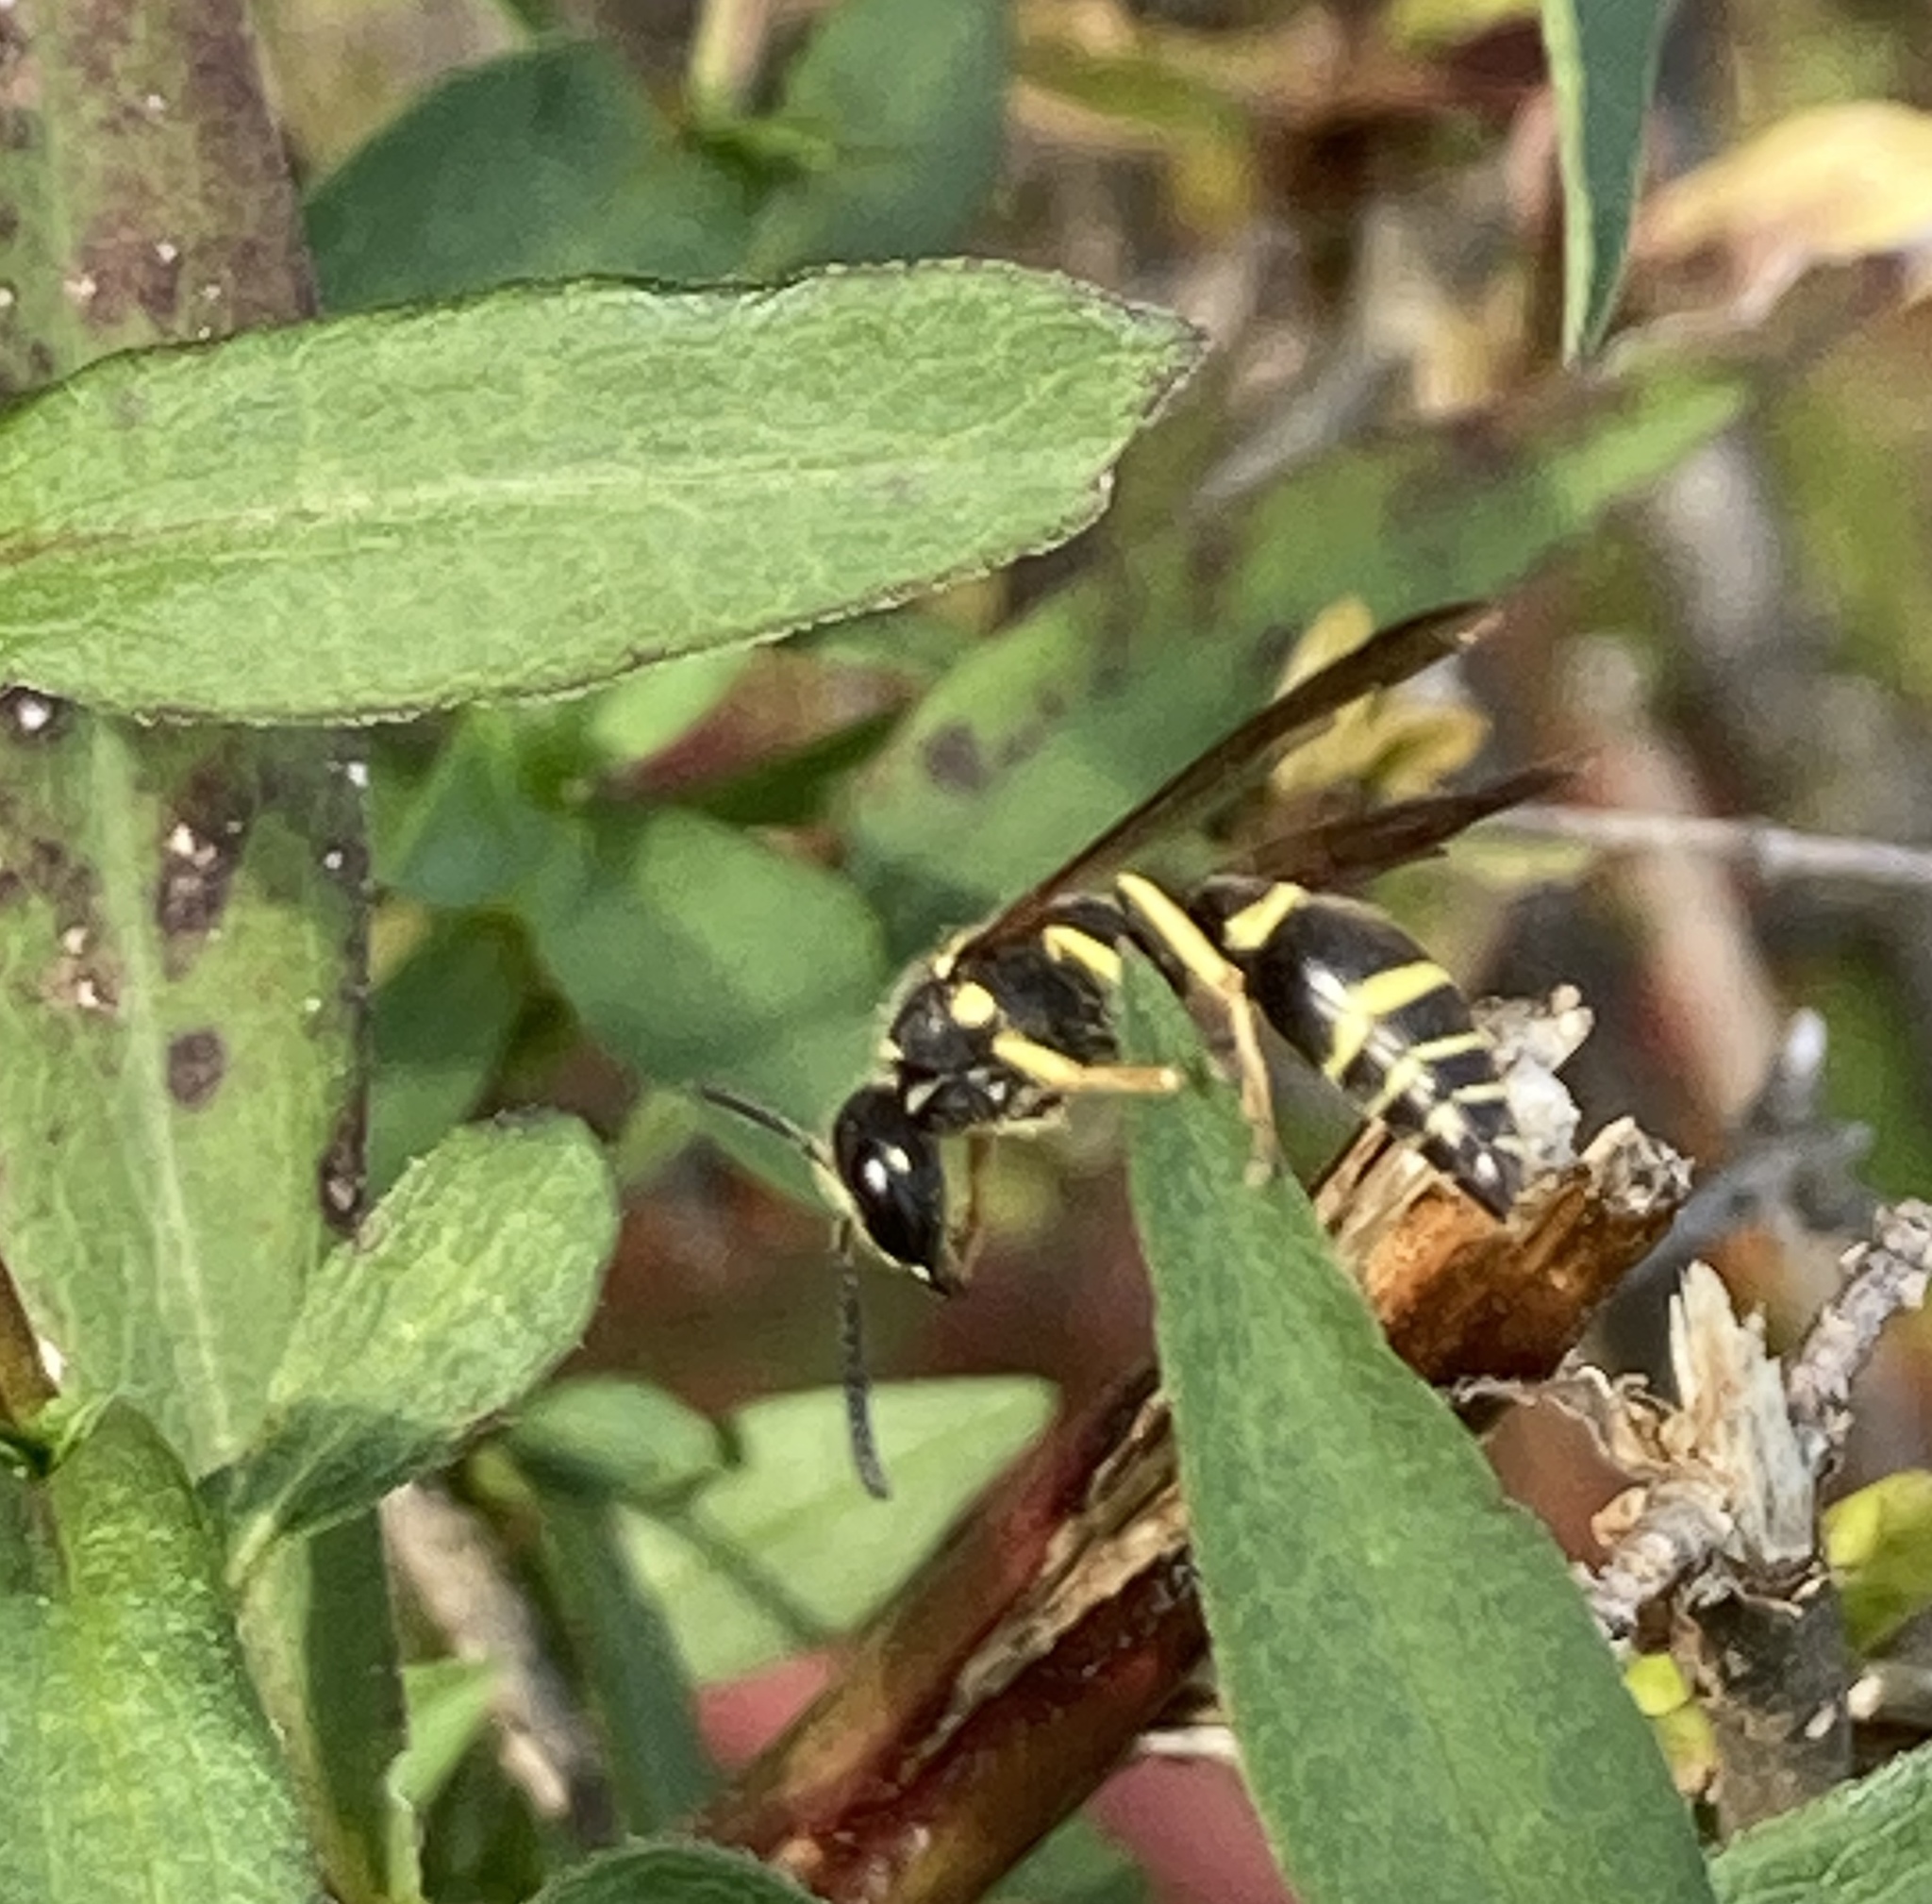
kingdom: Animalia
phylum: Arthropoda
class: Insecta
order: Hymenoptera
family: Vespidae
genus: Ancistrocerus
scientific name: Ancistrocerus adiabatus
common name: Bramble mason wasp
